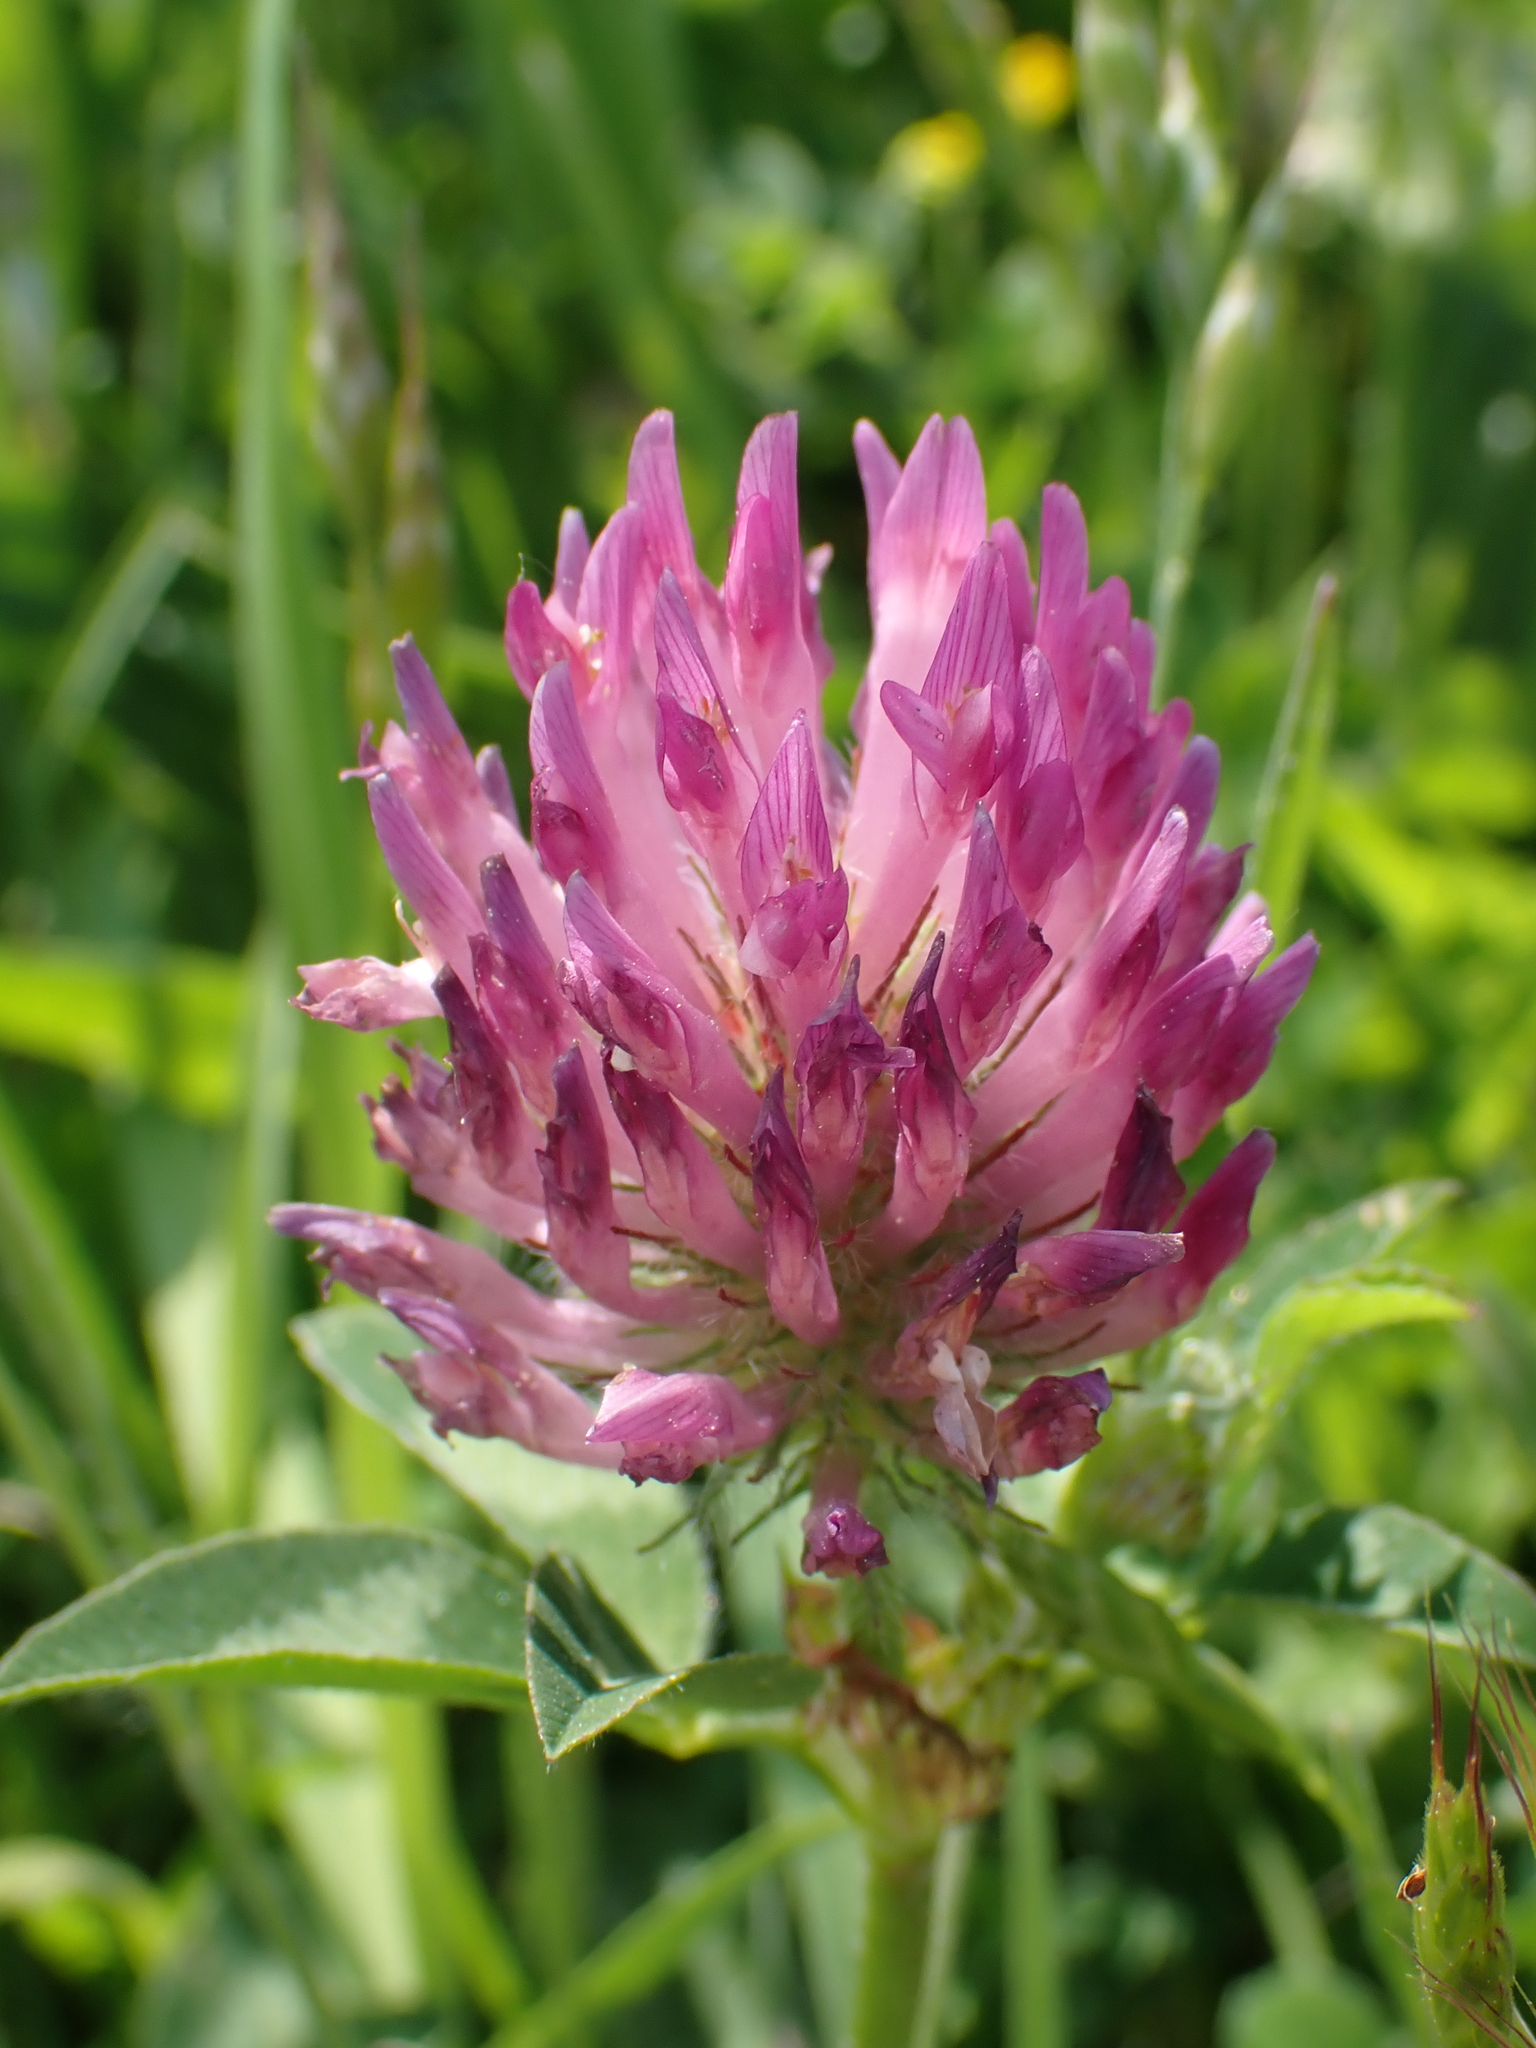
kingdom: Plantae
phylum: Tracheophyta
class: Magnoliopsida
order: Fabales
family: Fabaceae
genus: Trifolium
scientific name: Trifolium pratense
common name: Red clover
